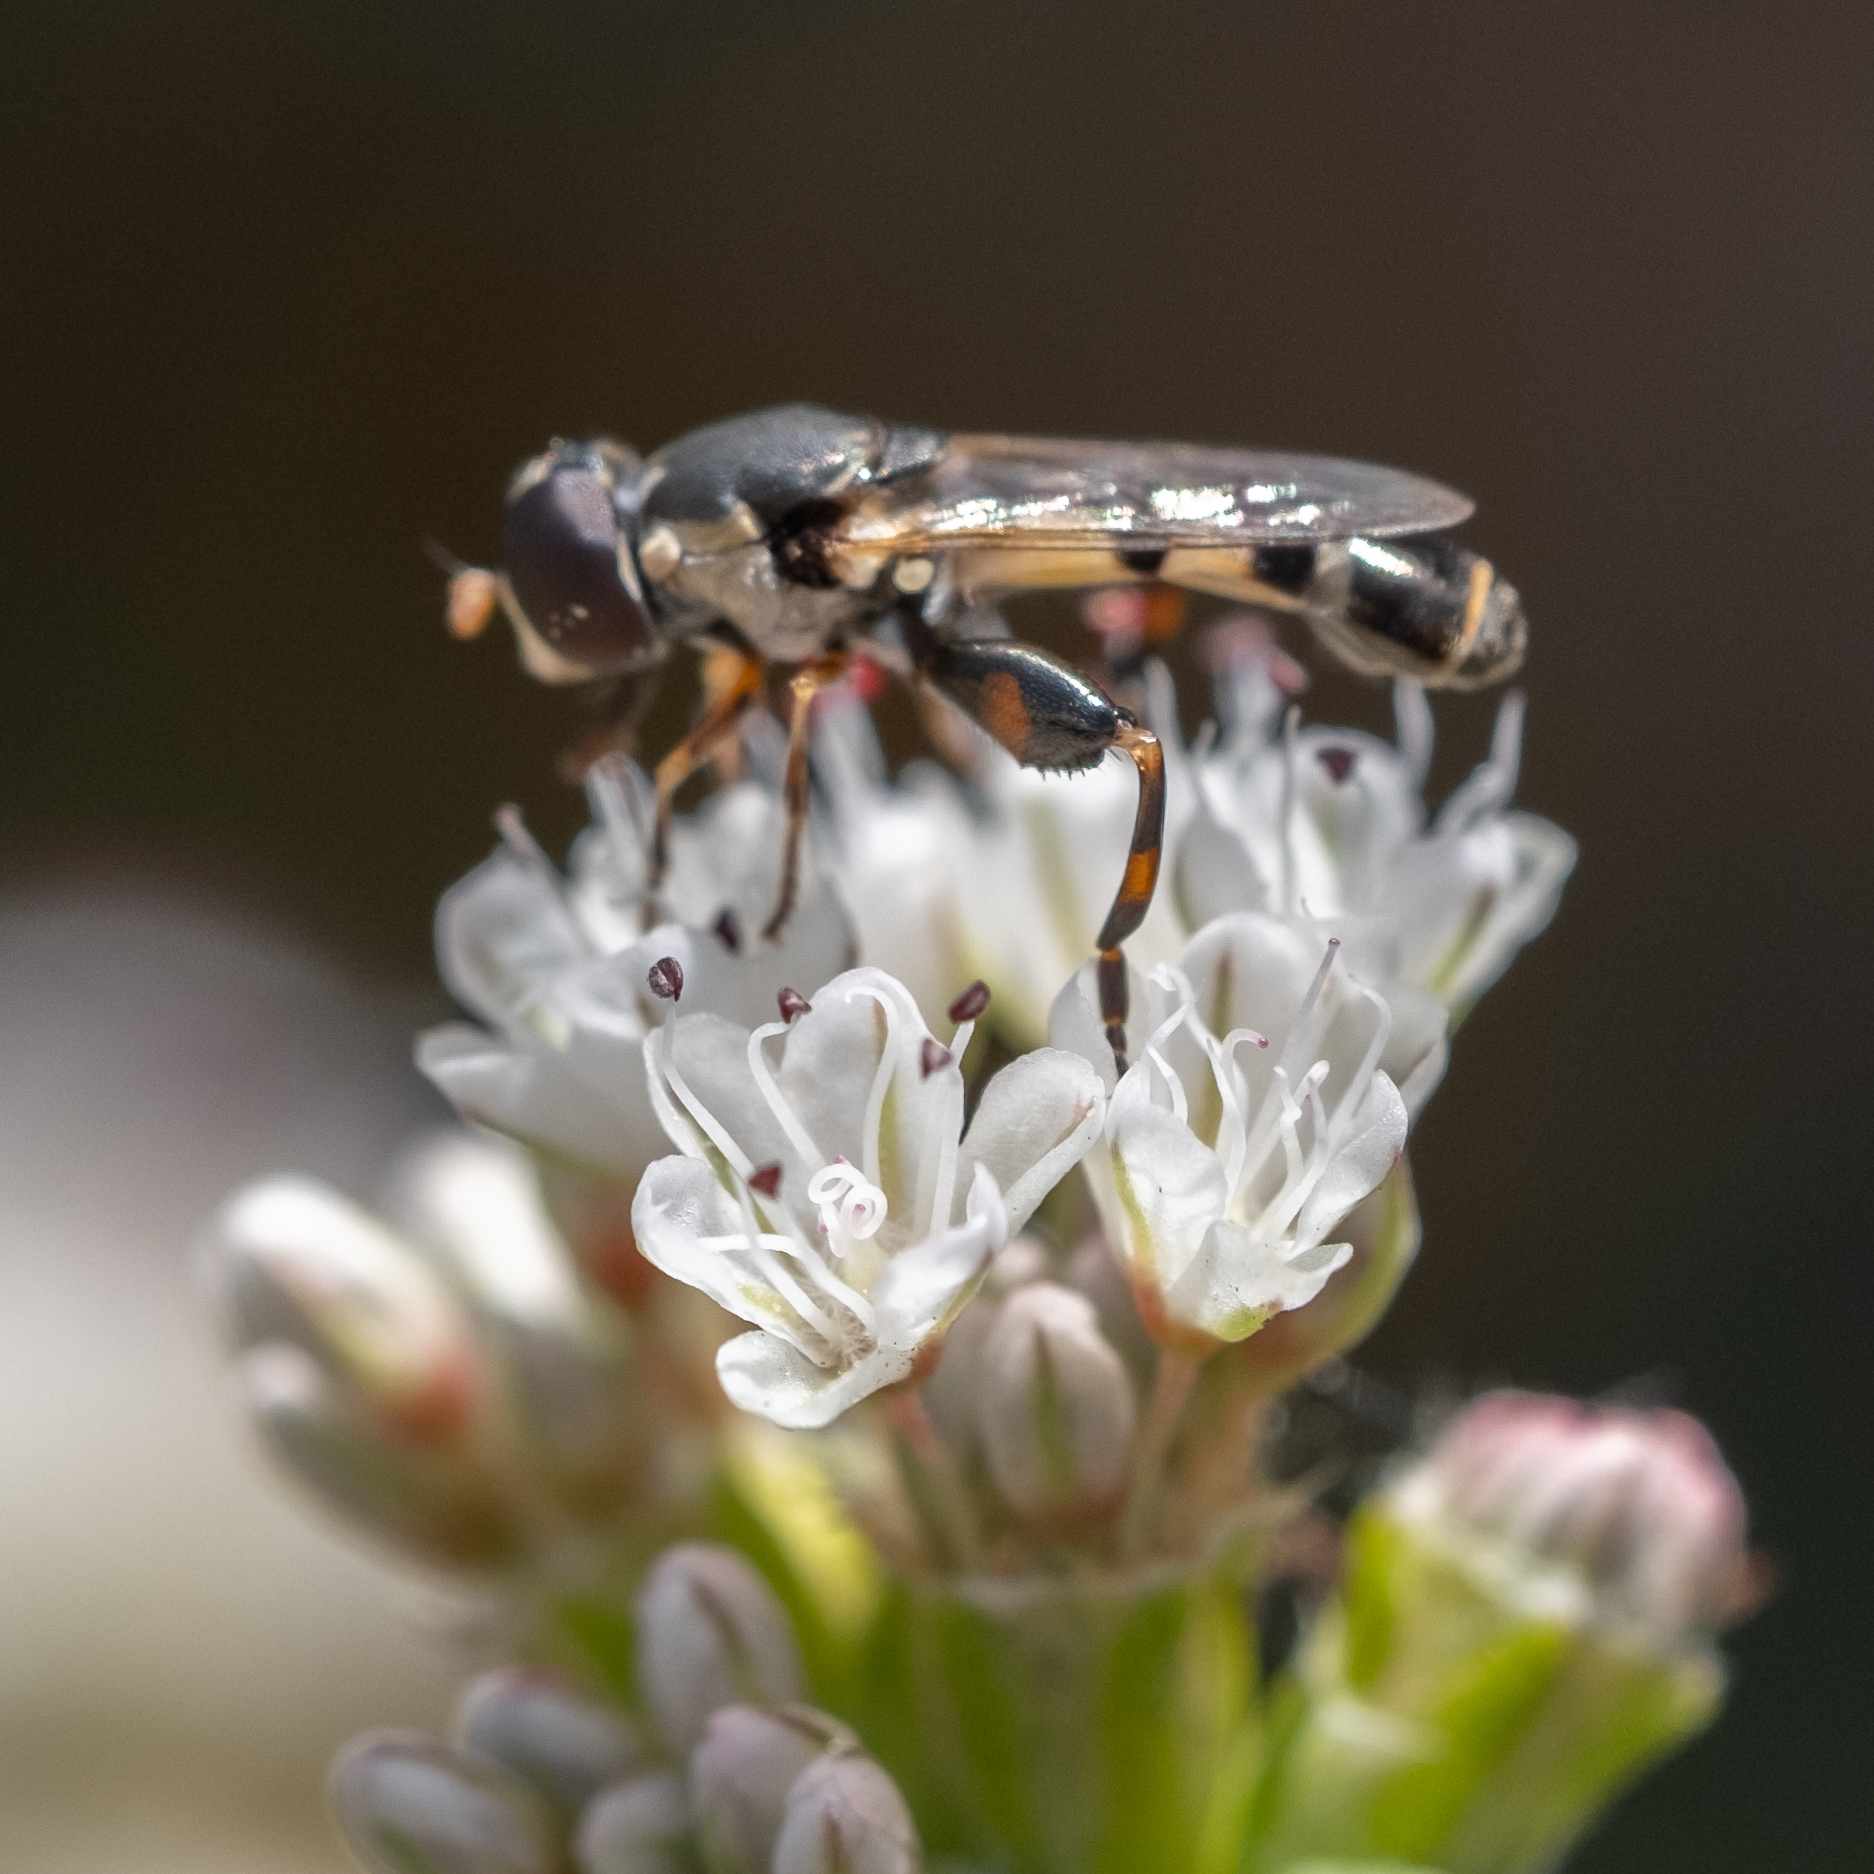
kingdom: Animalia
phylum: Arthropoda
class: Insecta
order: Diptera
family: Syrphidae
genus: Syritta
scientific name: Syritta pipiens
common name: Hover fly
